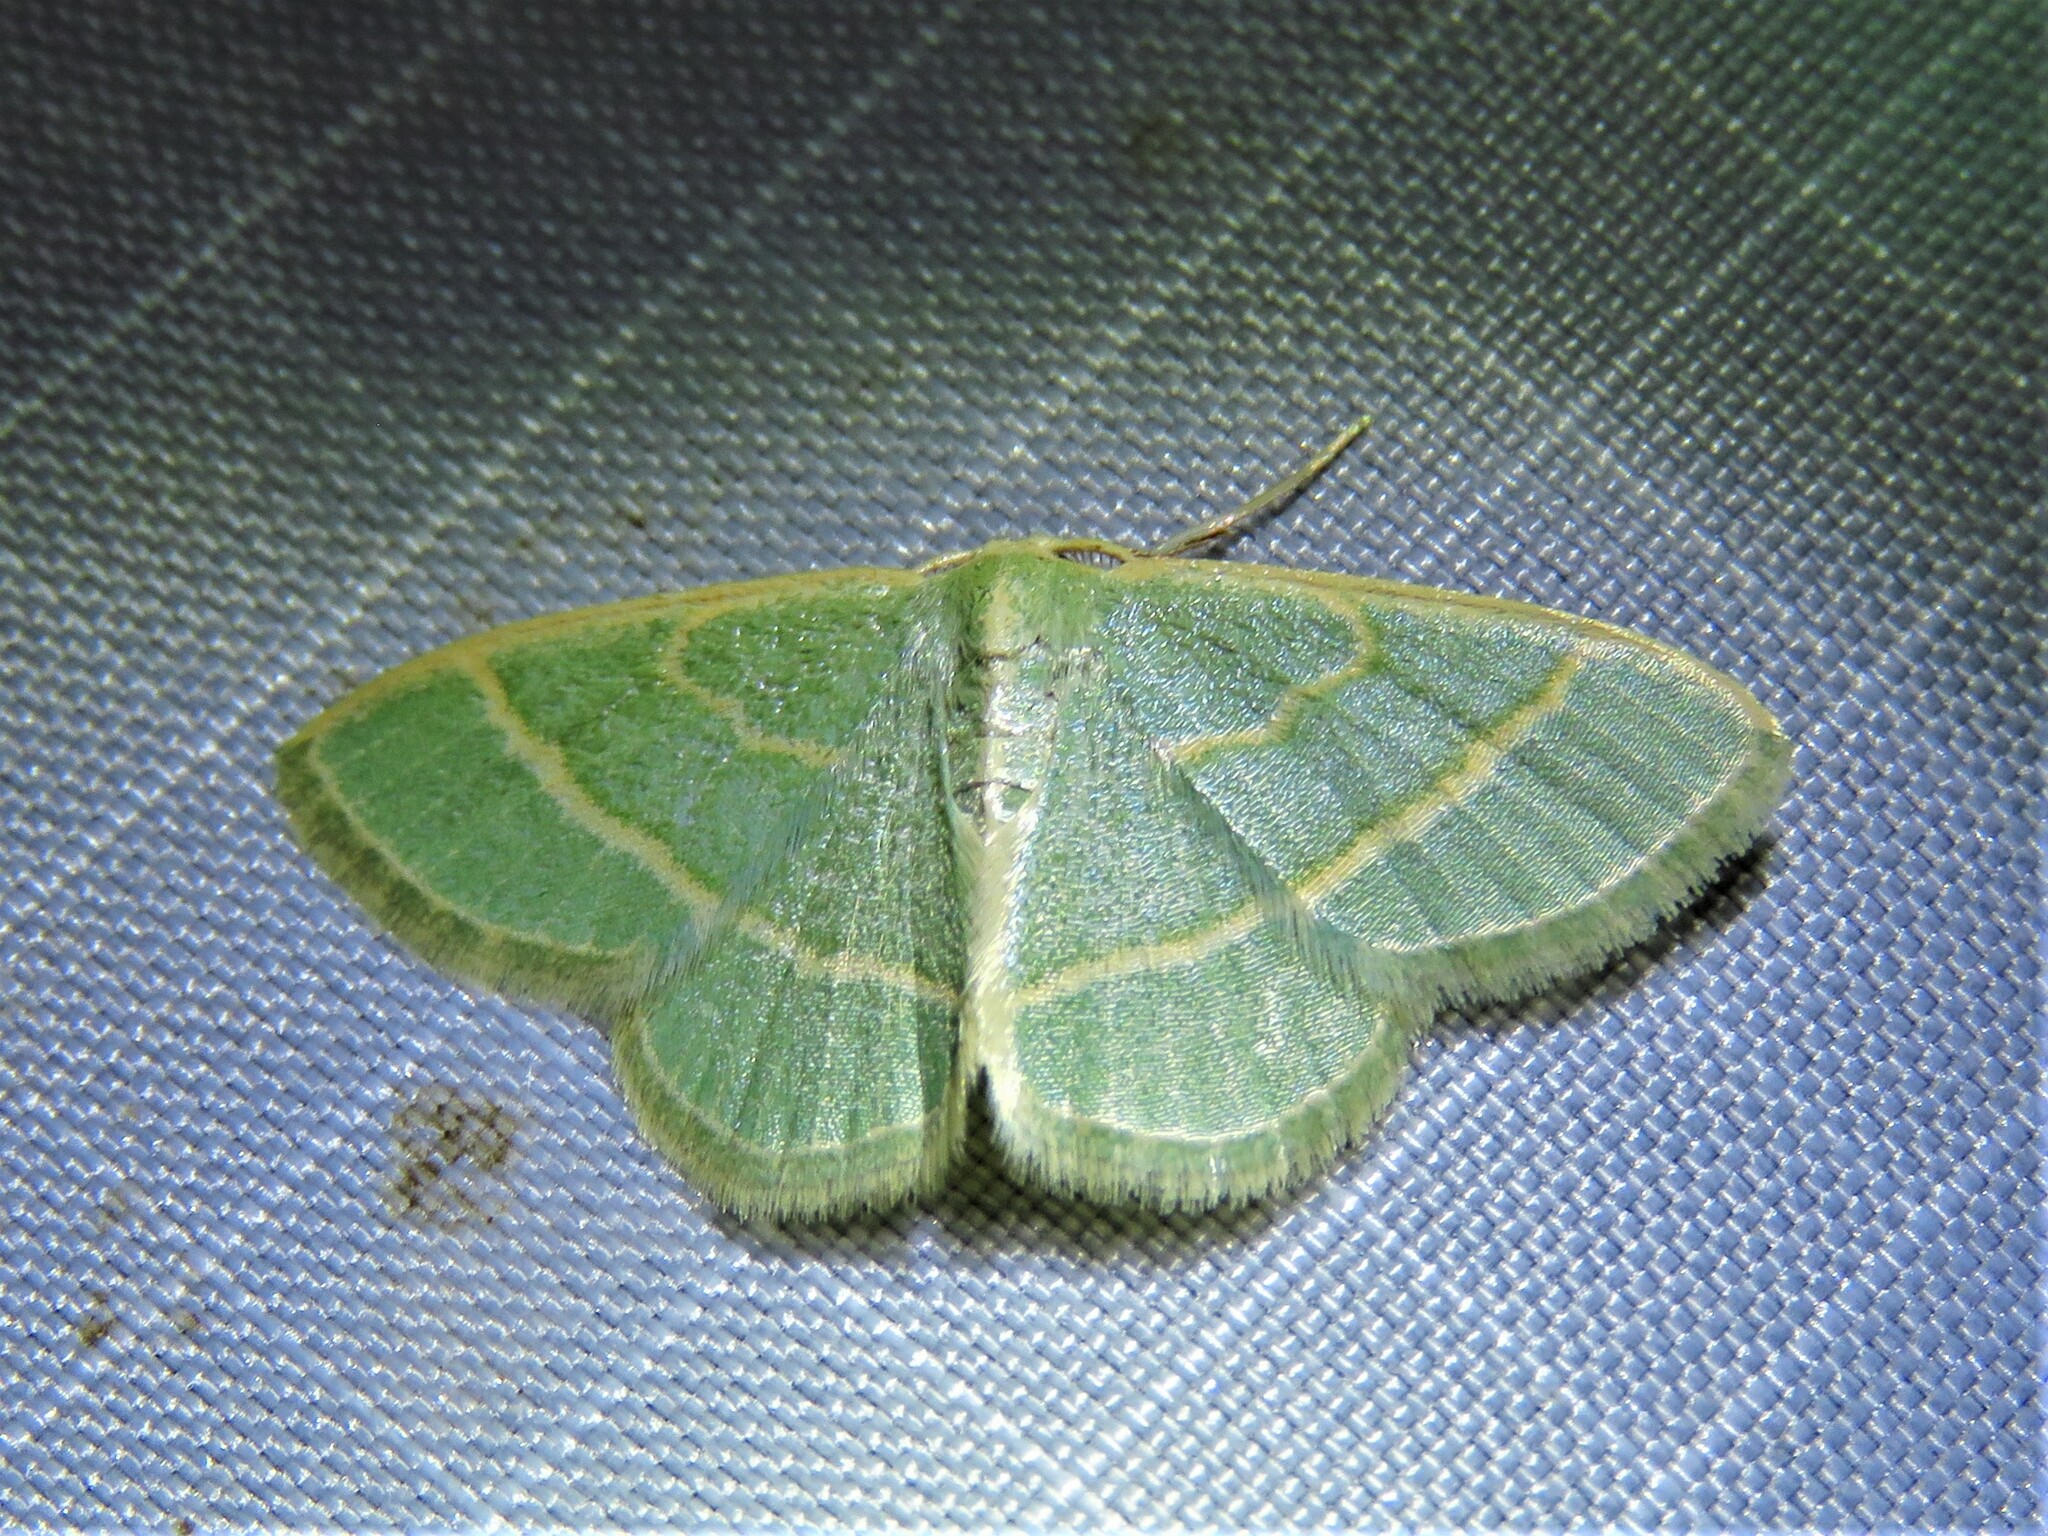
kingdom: Animalia
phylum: Arthropoda
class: Insecta
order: Lepidoptera
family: Geometridae
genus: Chlorochlamys
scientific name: Chlorochlamys appellaria
